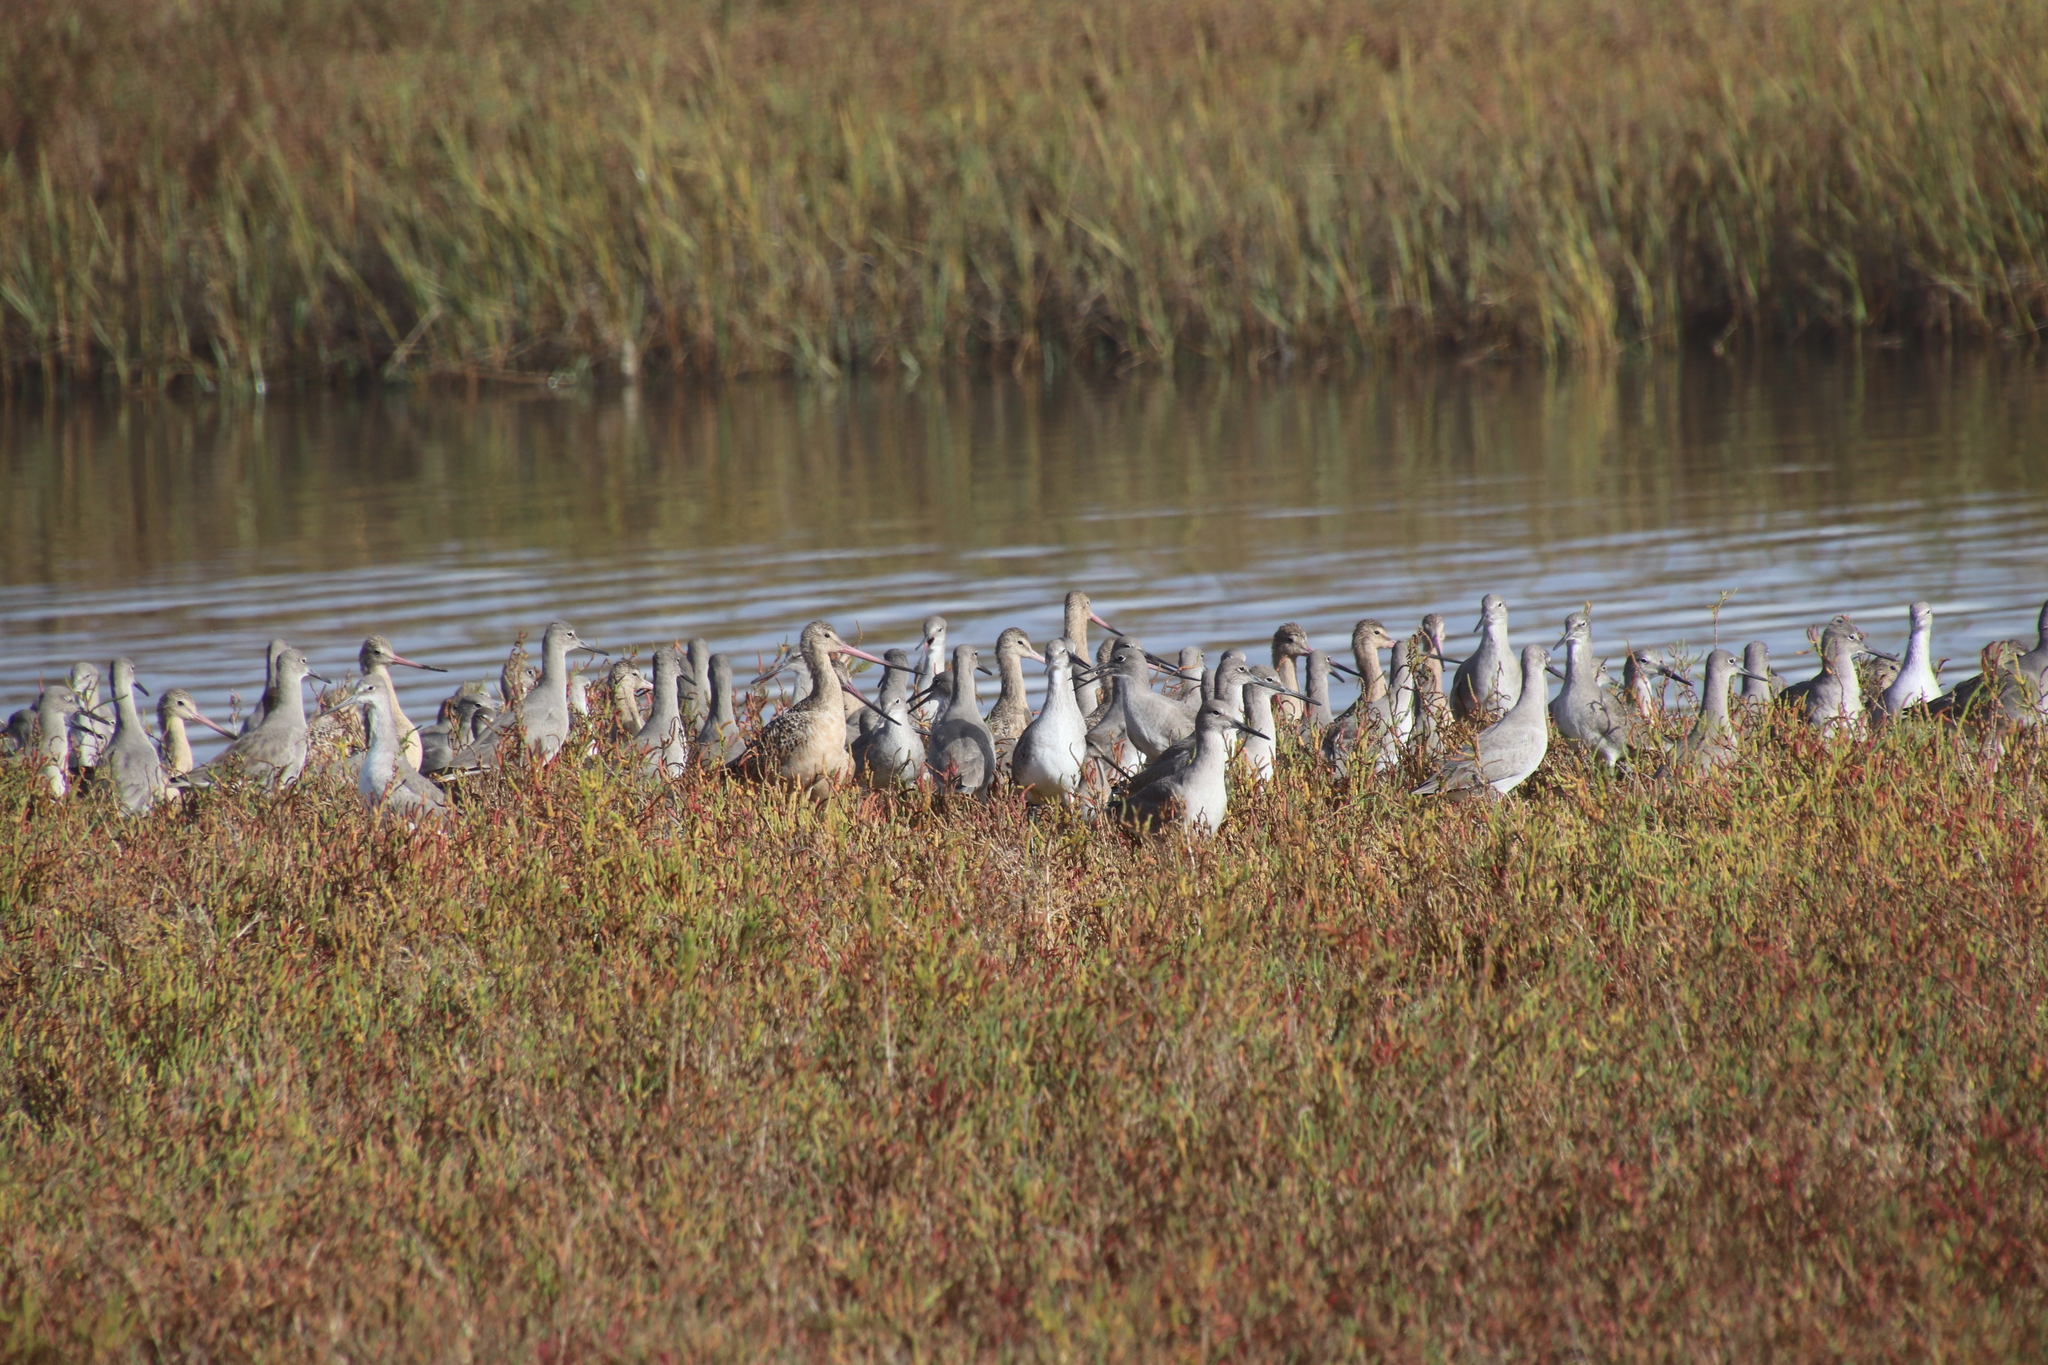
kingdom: Animalia
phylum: Chordata
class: Aves
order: Charadriiformes
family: Scolopacidae
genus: Limosa
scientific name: Limosa fedoa
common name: Marbled godwit
